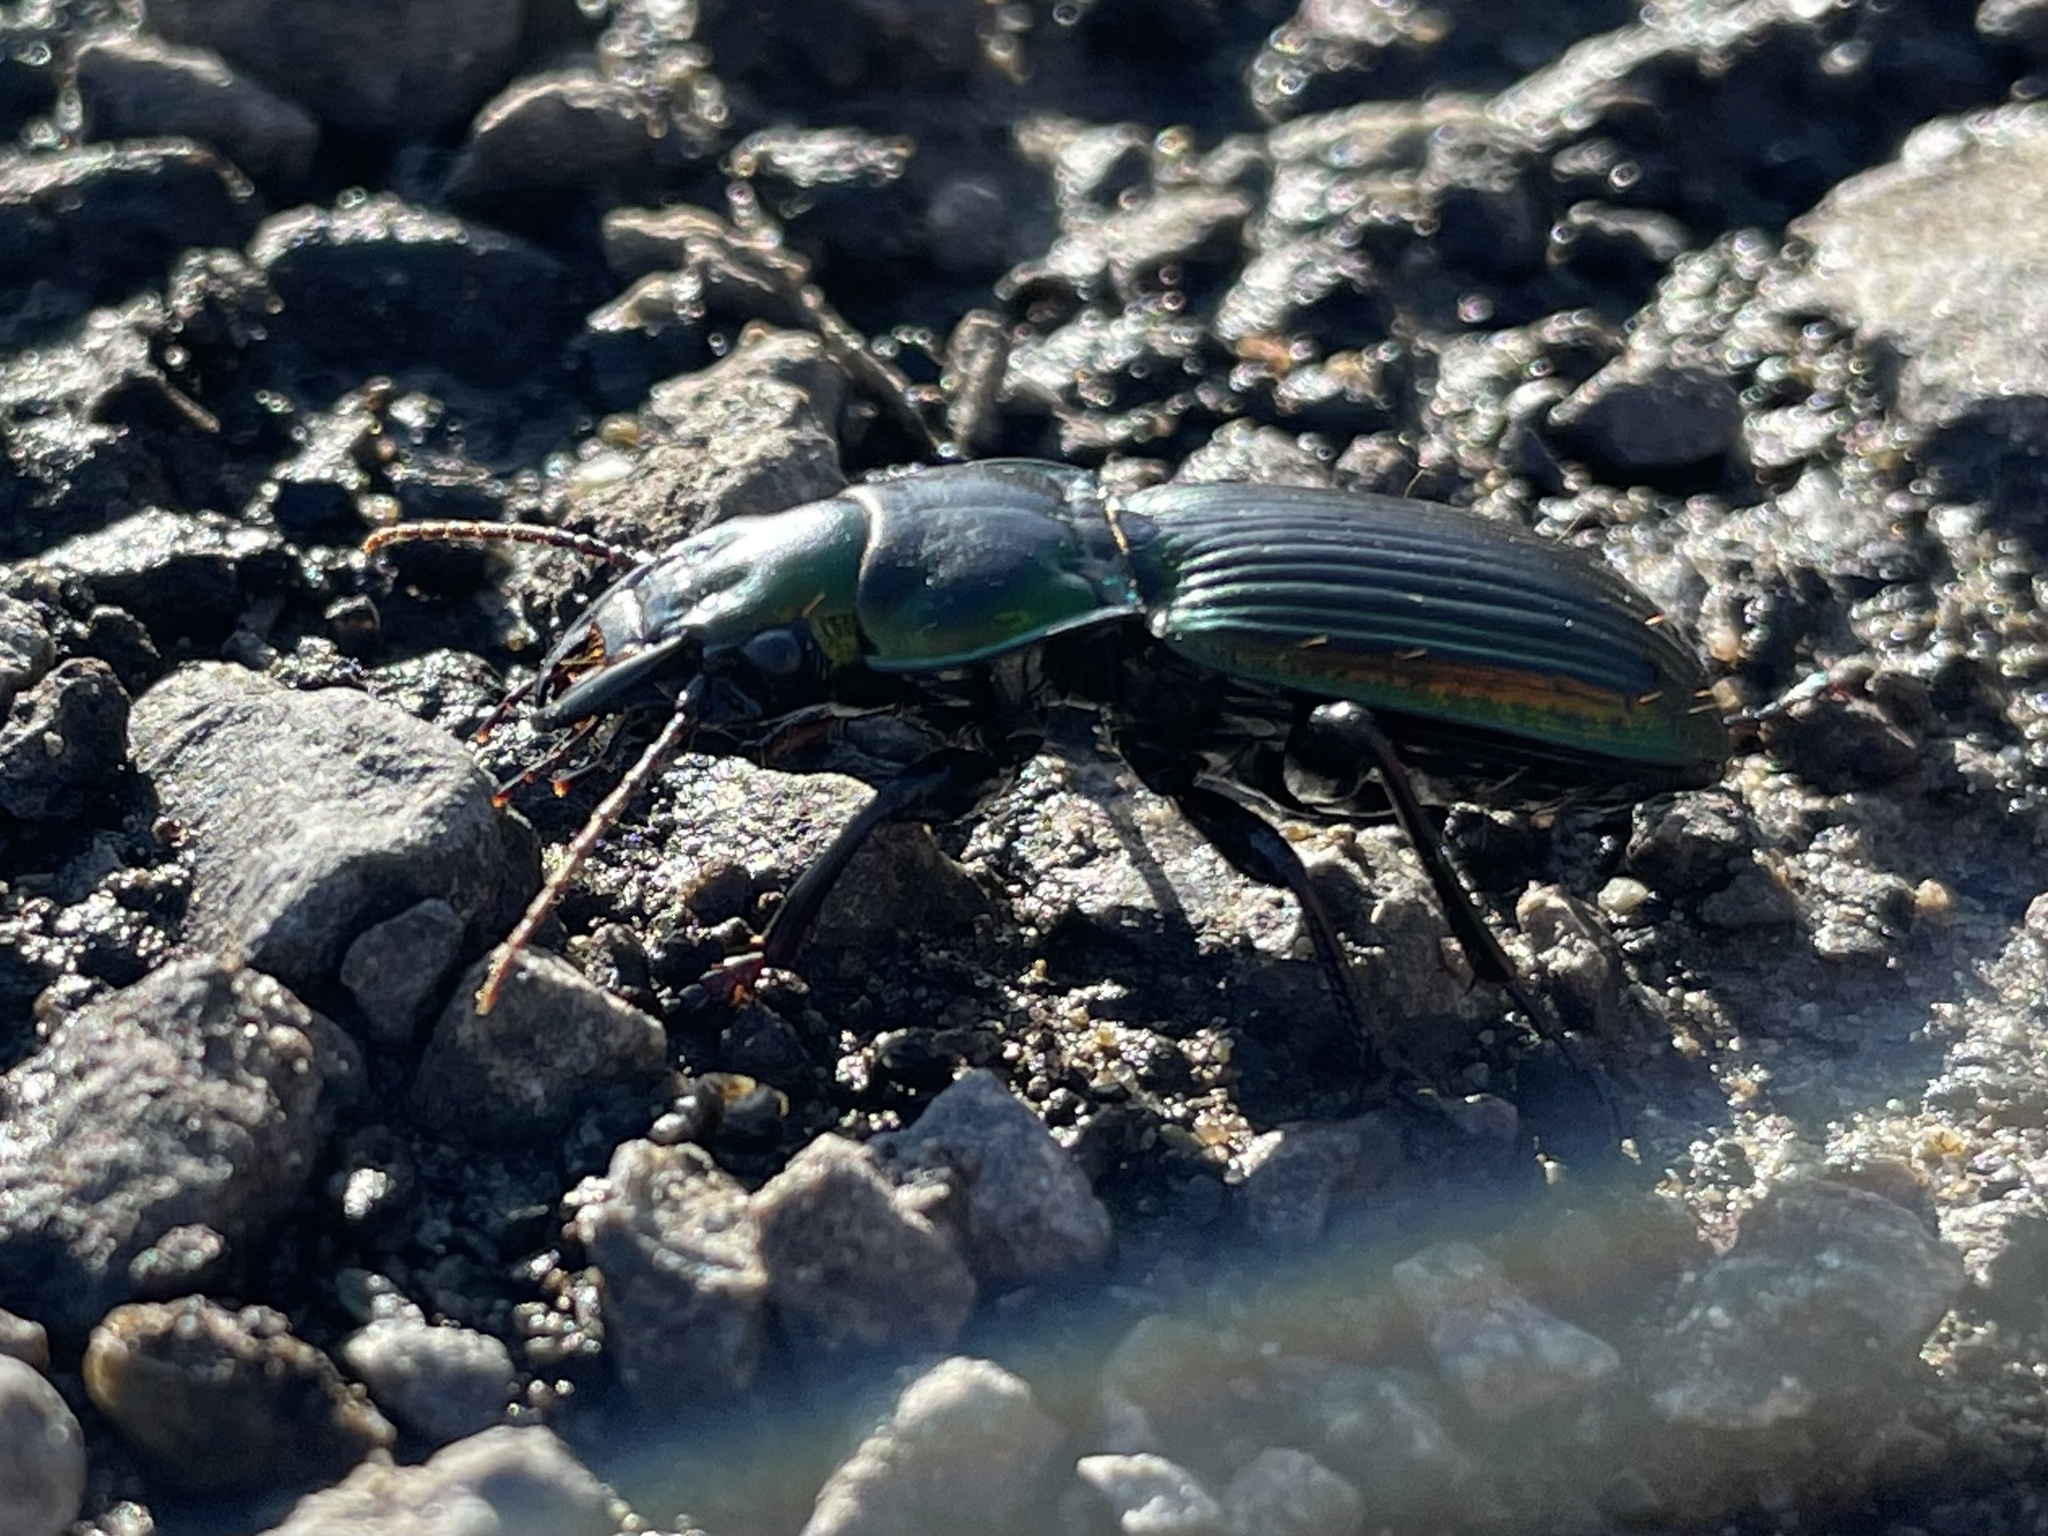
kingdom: Animalia
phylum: Arthropoda
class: Insecta
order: Coleoptera
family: Carabidae
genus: Megadromus
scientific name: Megadromus antarcticus
